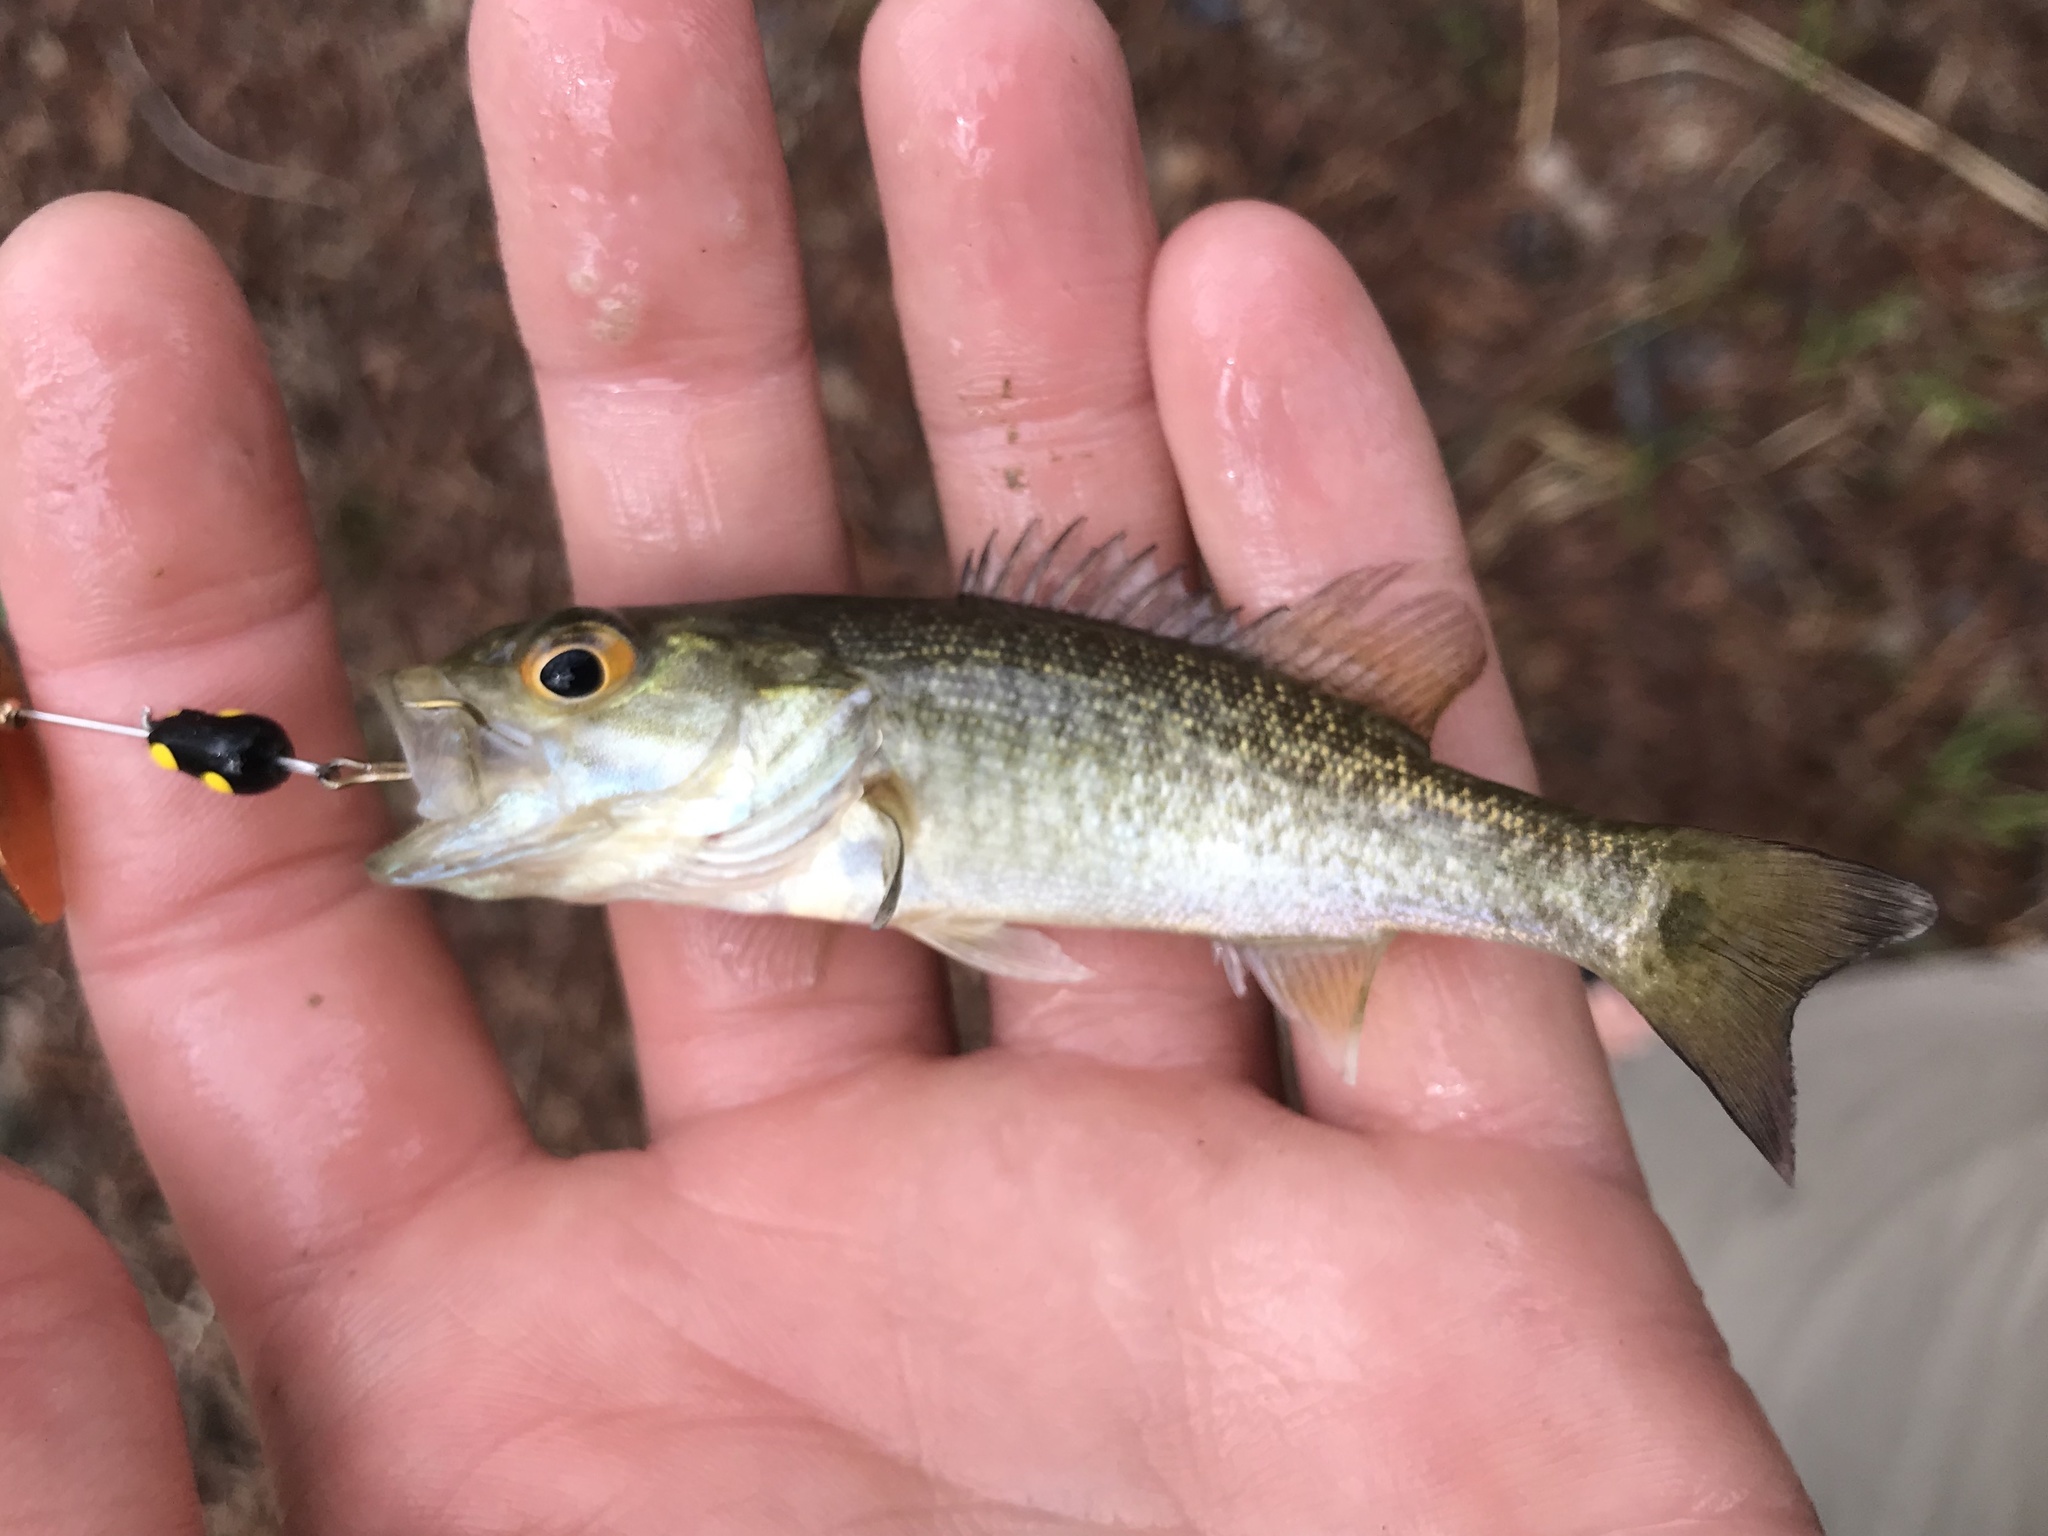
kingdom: Animalia
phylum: Chordata
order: Perciformes
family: Centrarchidae
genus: Micropterus
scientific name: Micropterus treculii
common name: Guadalupe bass
